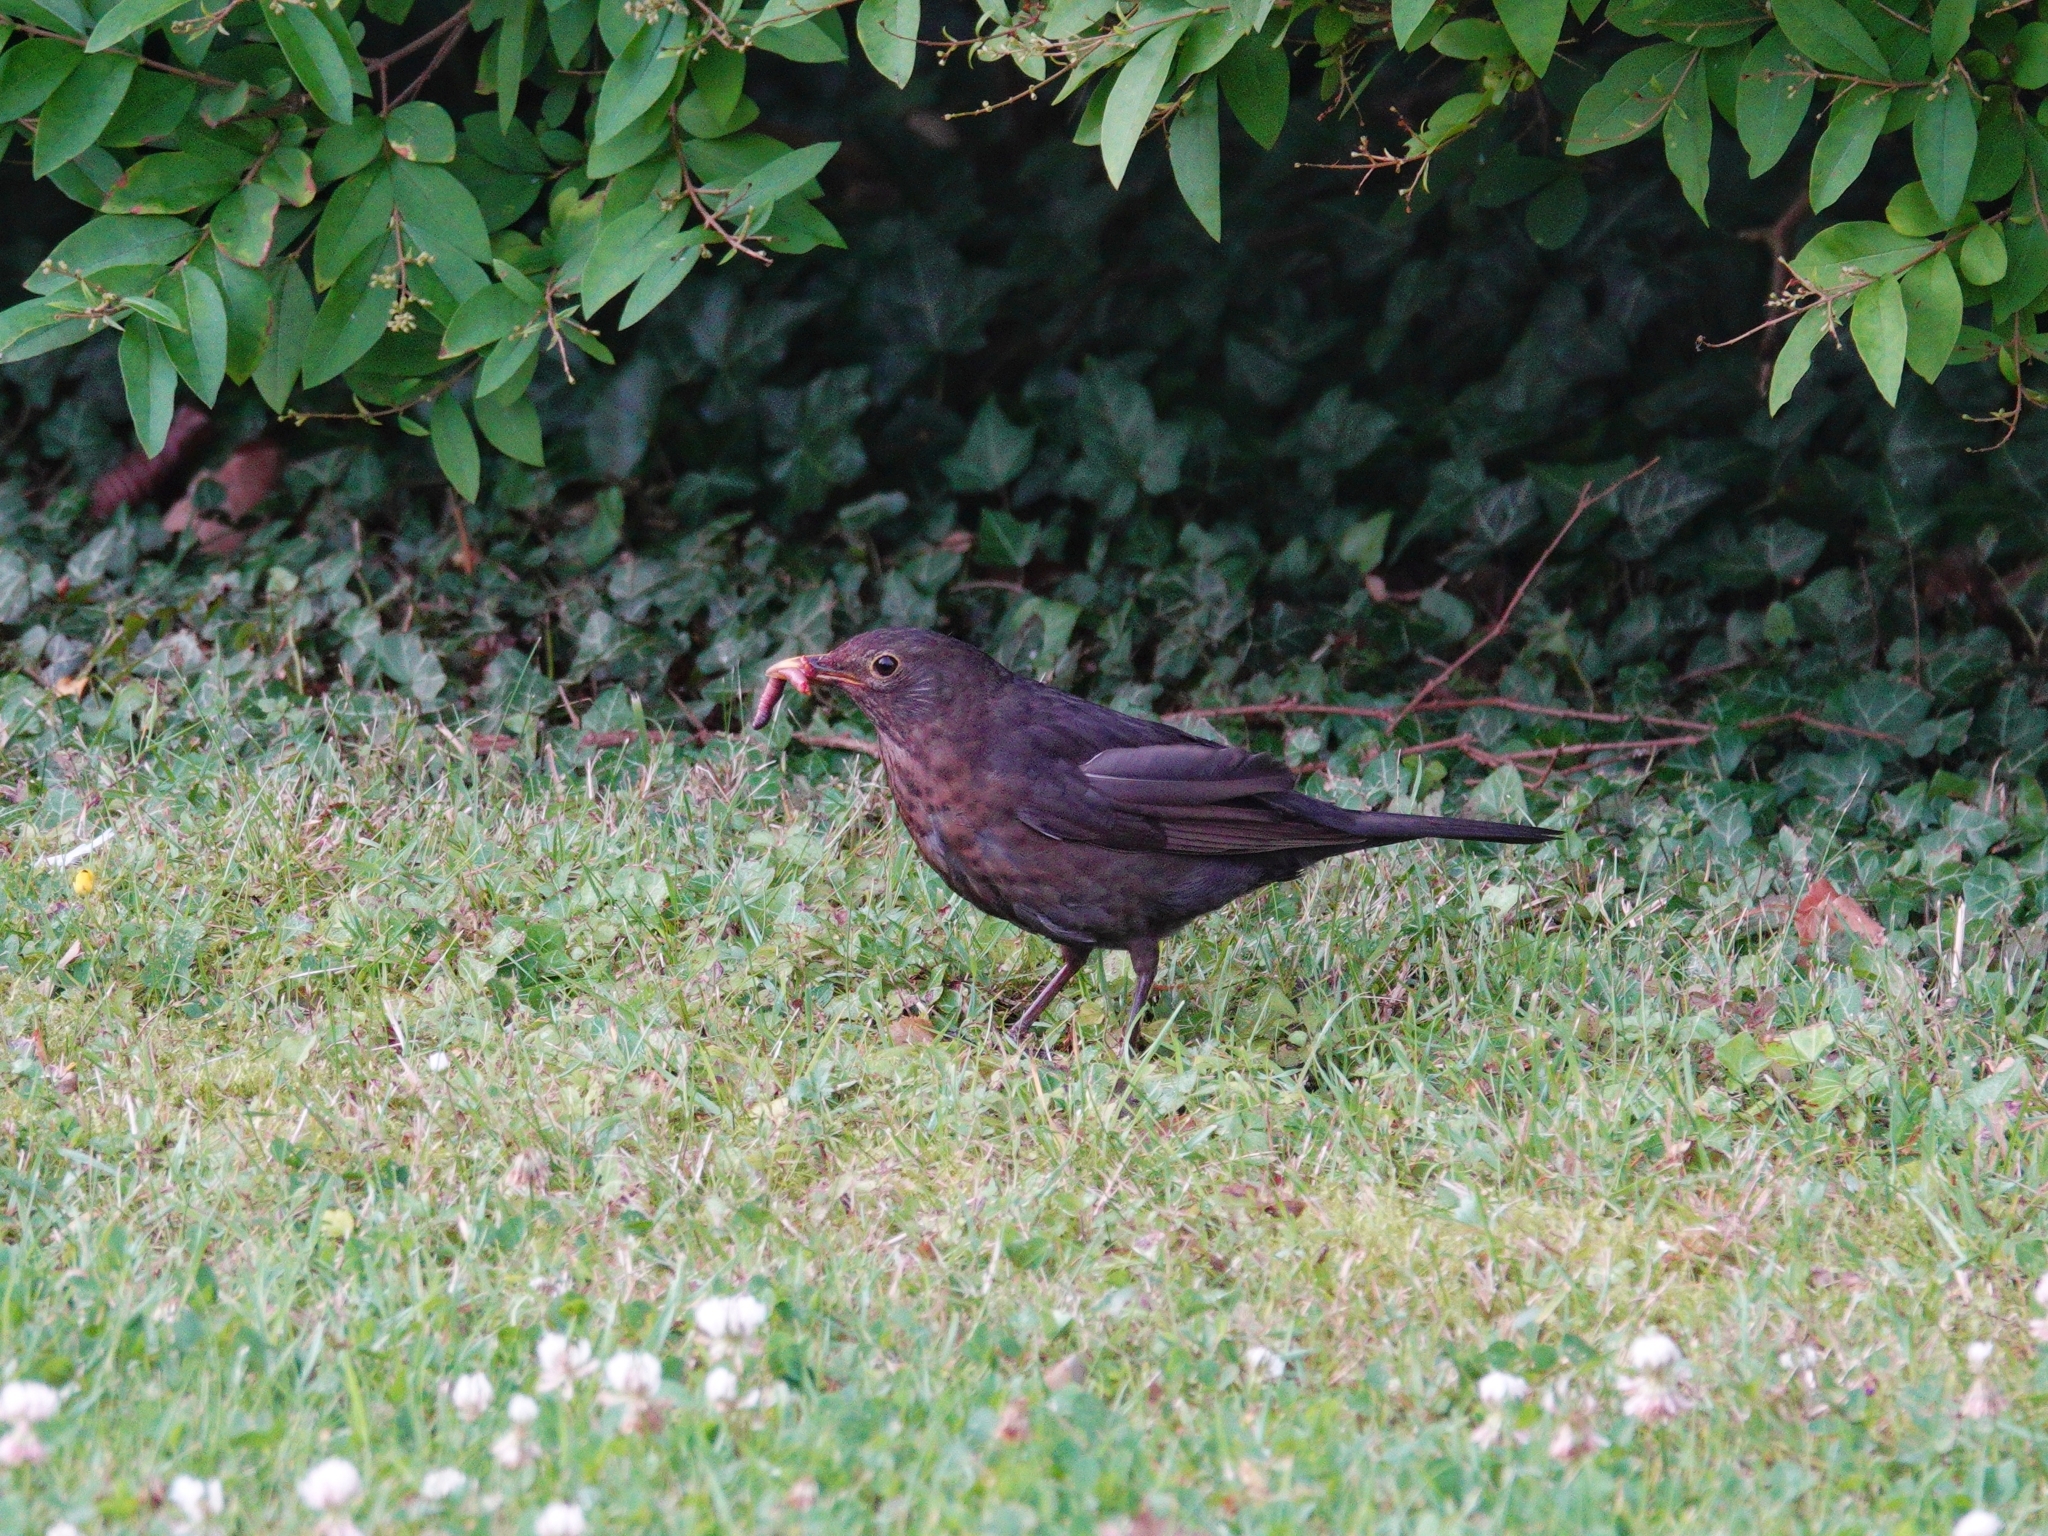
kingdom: Animalia
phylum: Chordata
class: Aves
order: Passeriformes
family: Turdidae
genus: Turdus
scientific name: Turdus merula
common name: Common blackbird
